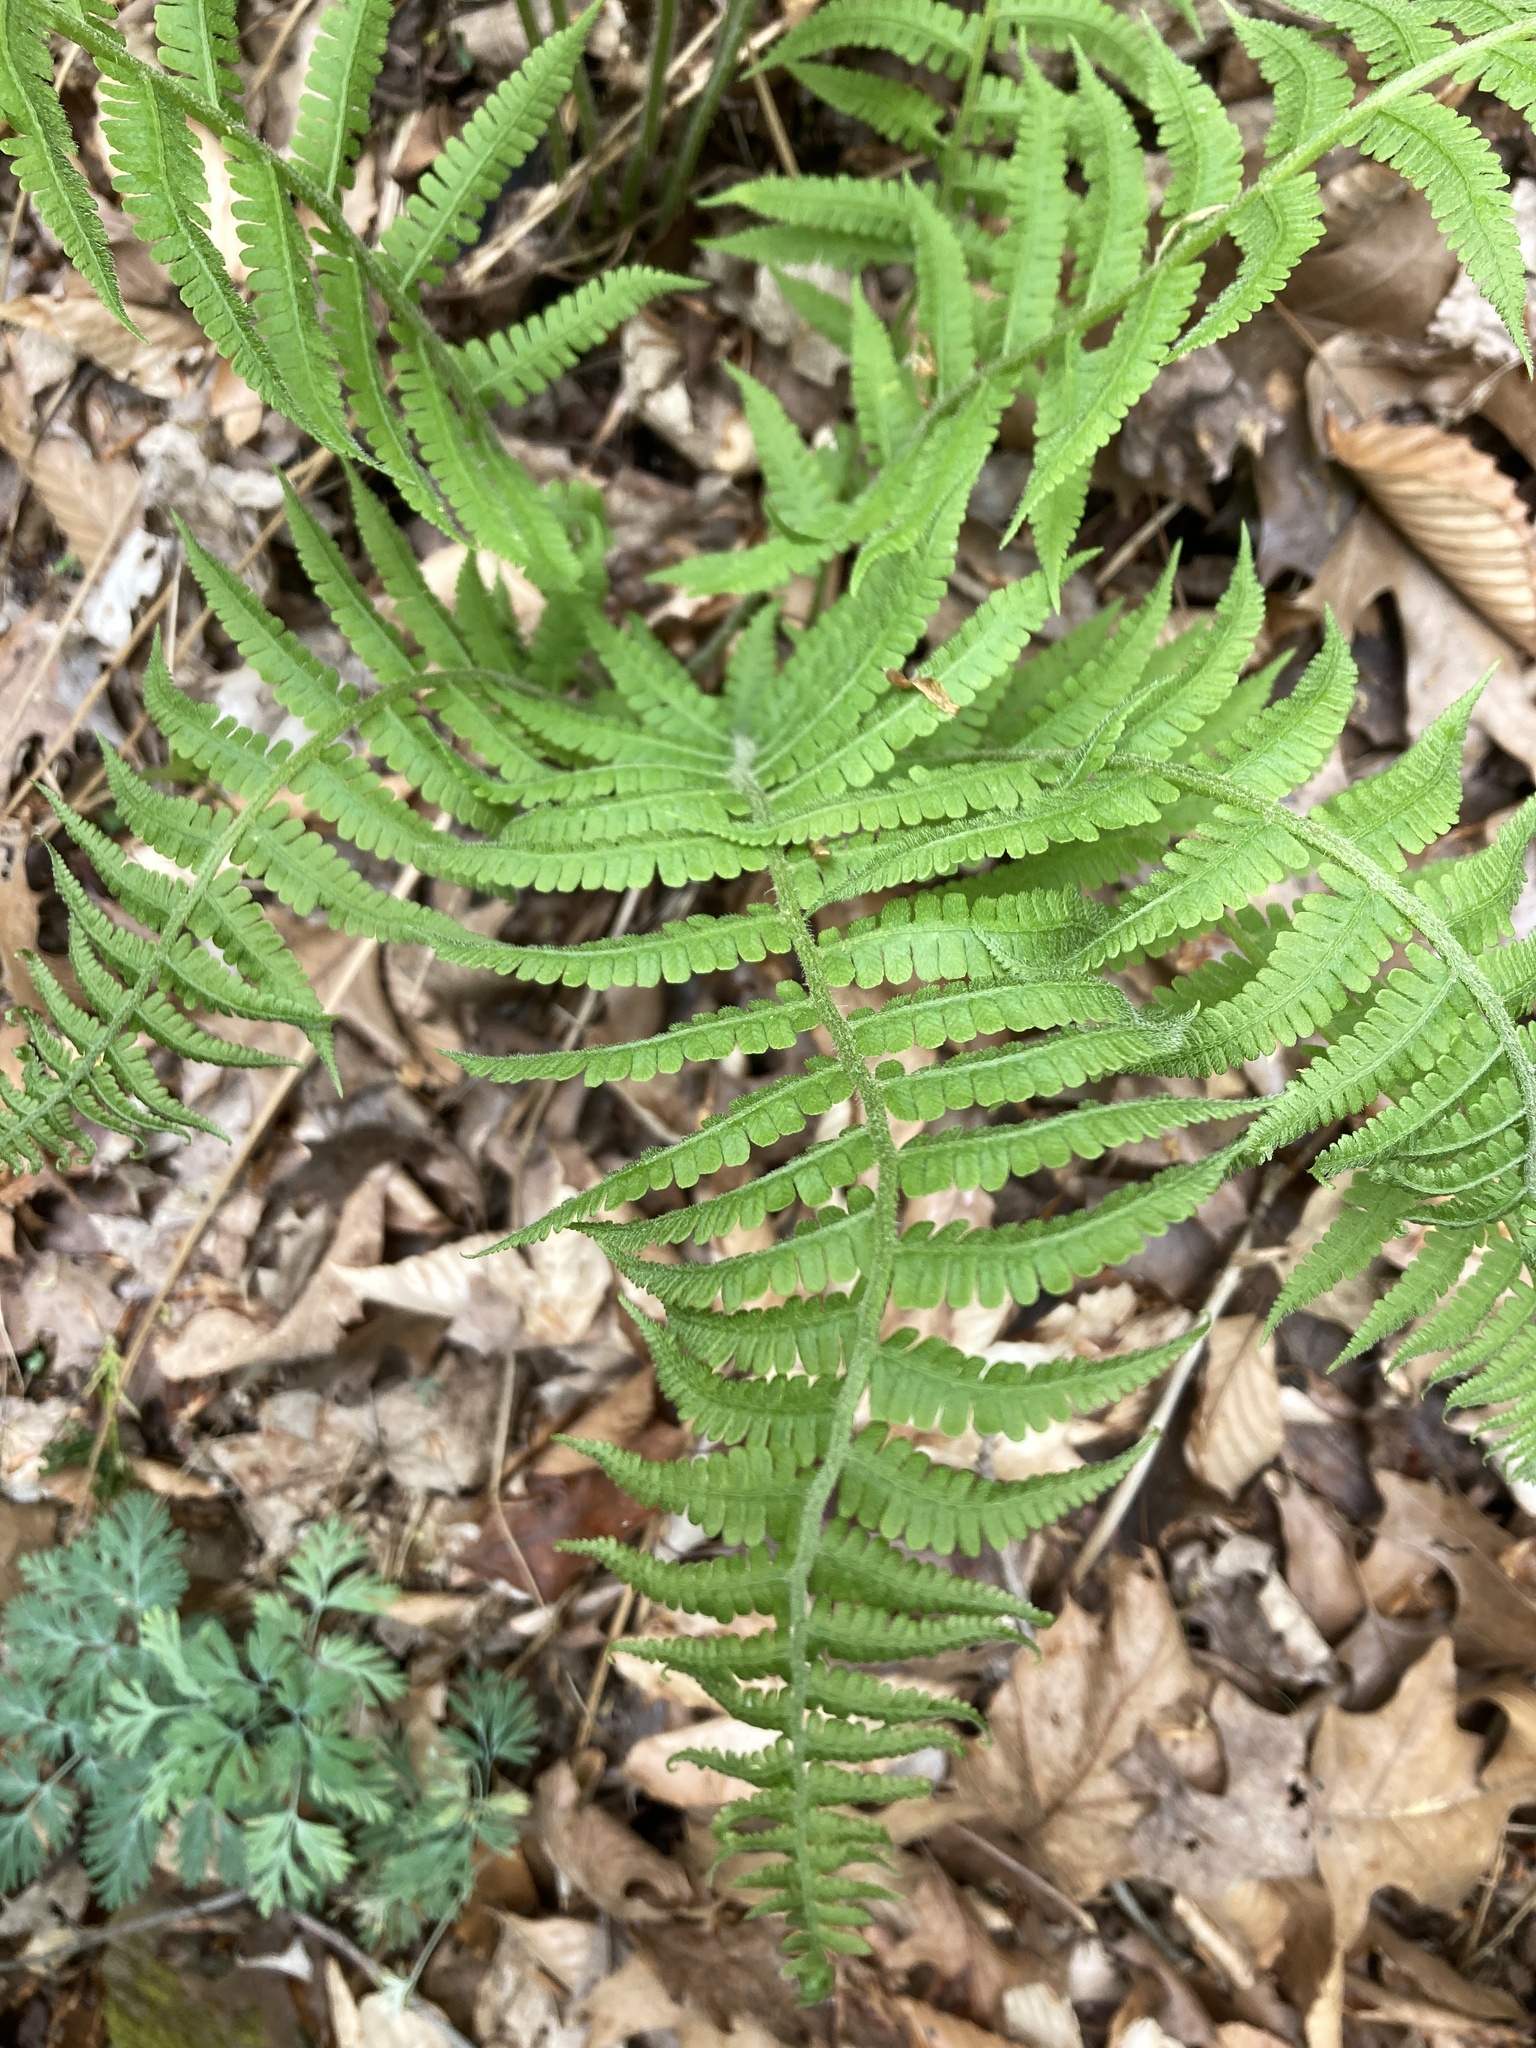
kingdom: Plantae
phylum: Tracheophyta
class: Polypodiopsida
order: Polypodiales
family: Athyriaceae
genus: Deparia
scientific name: Deparia acrostichoides
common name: Silver false spleenwort
